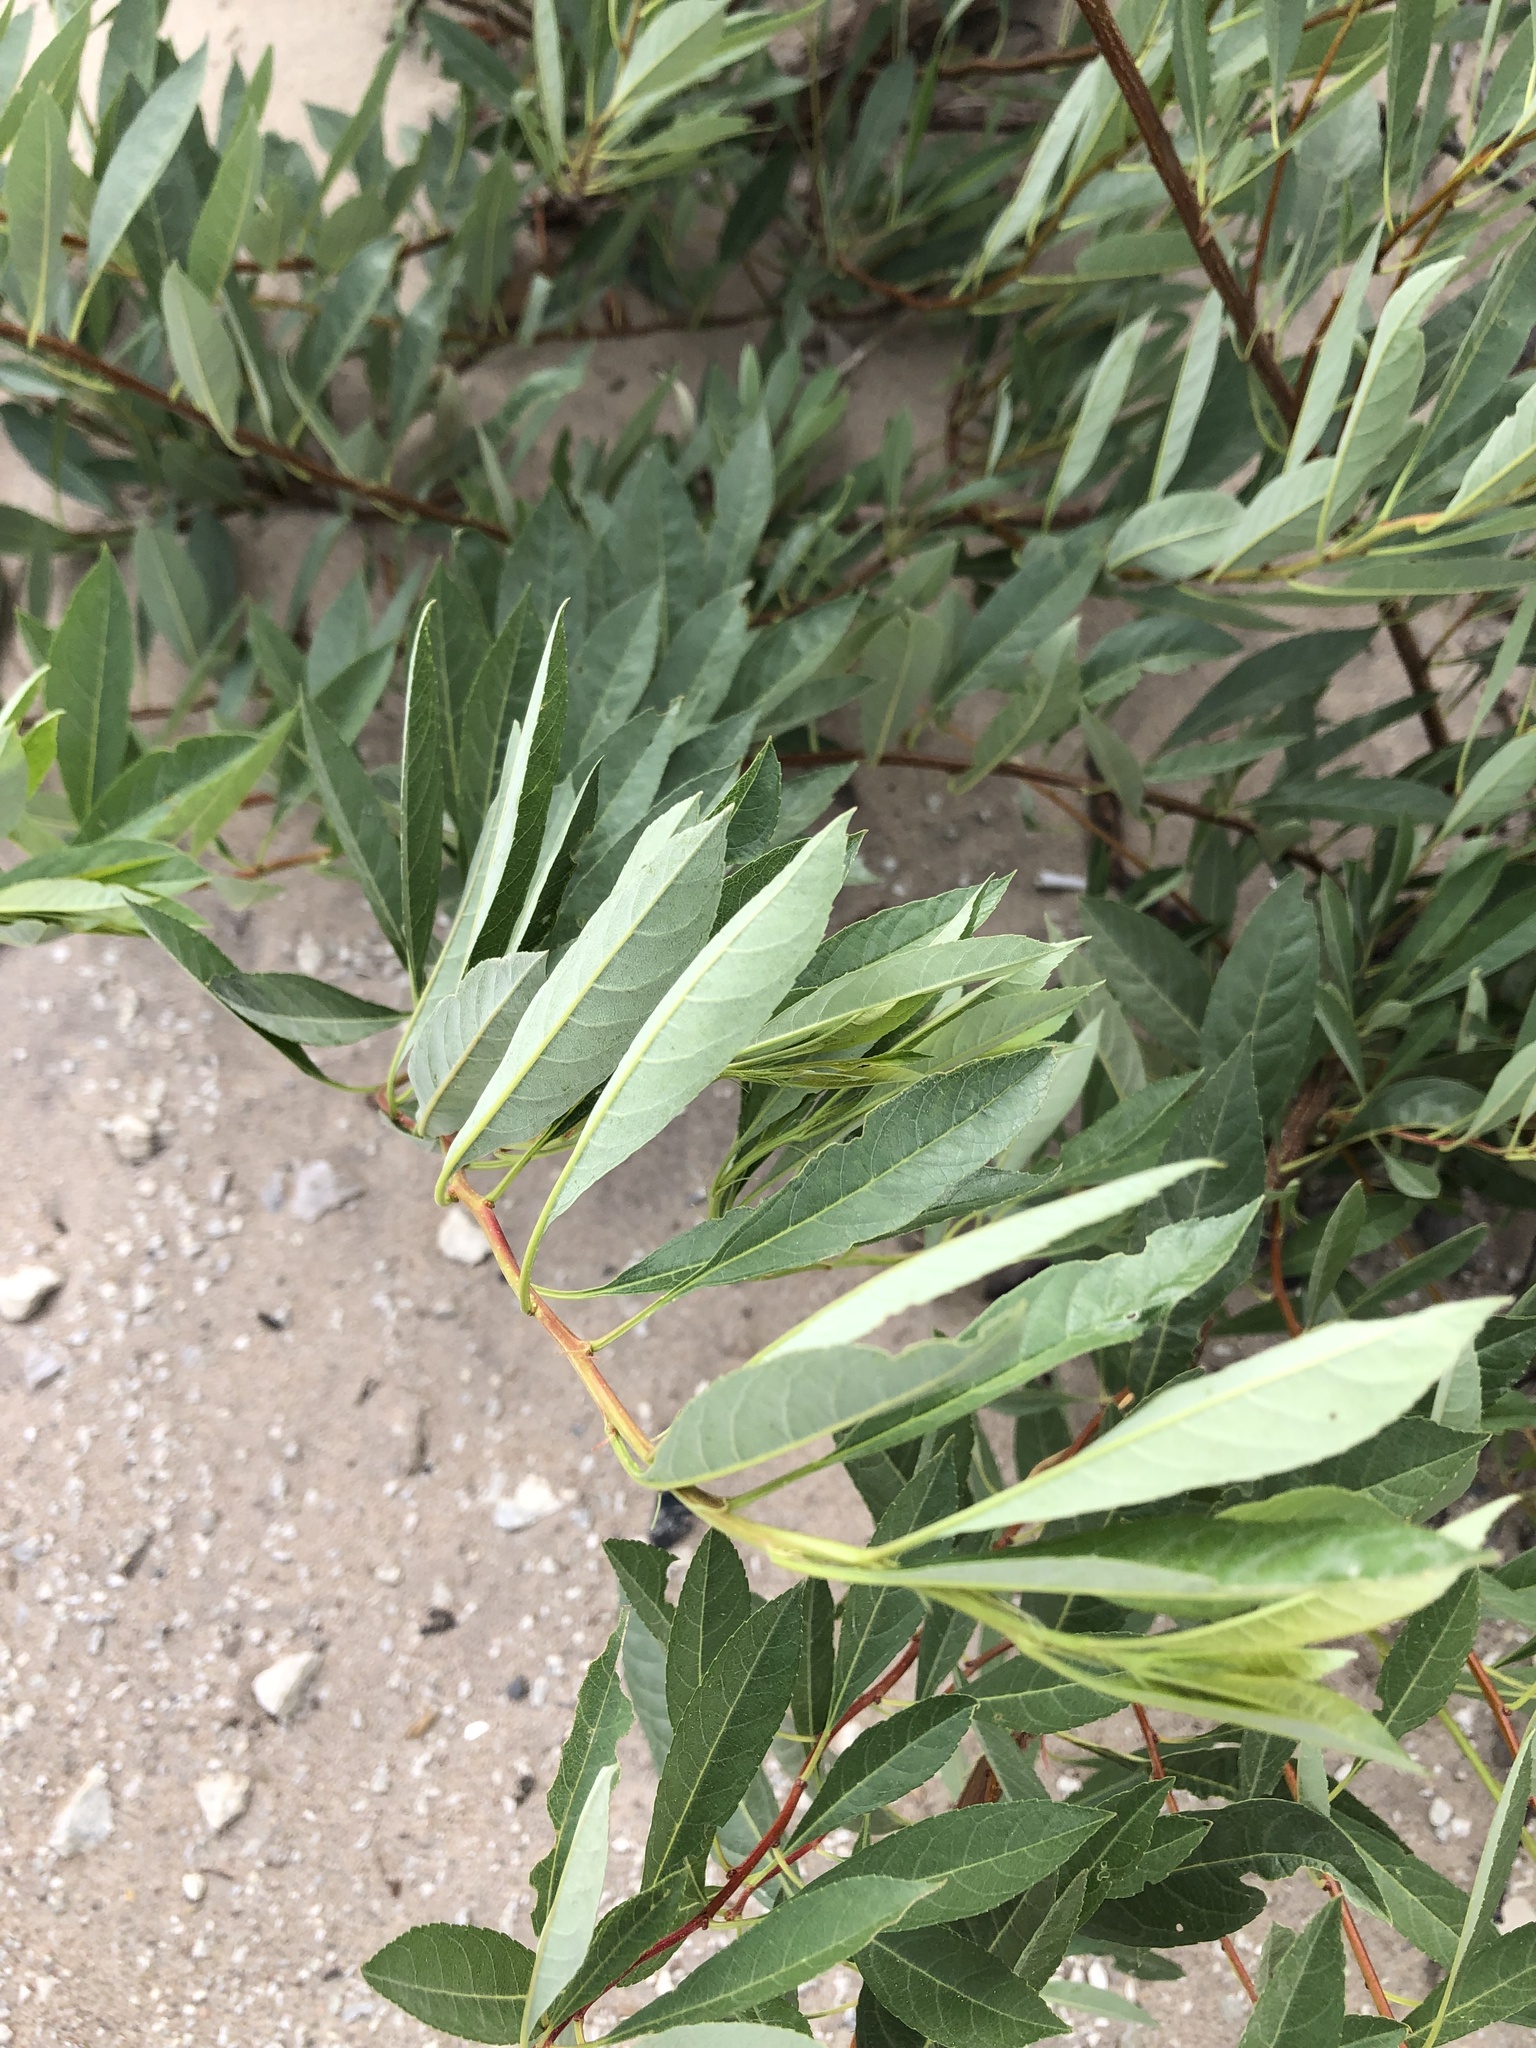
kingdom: Plantae
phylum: Tracheophyta
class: Magnoliopsida
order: Rosales
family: Rosaceae
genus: Prunus
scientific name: Prunus pumila
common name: Dwarf cherry
